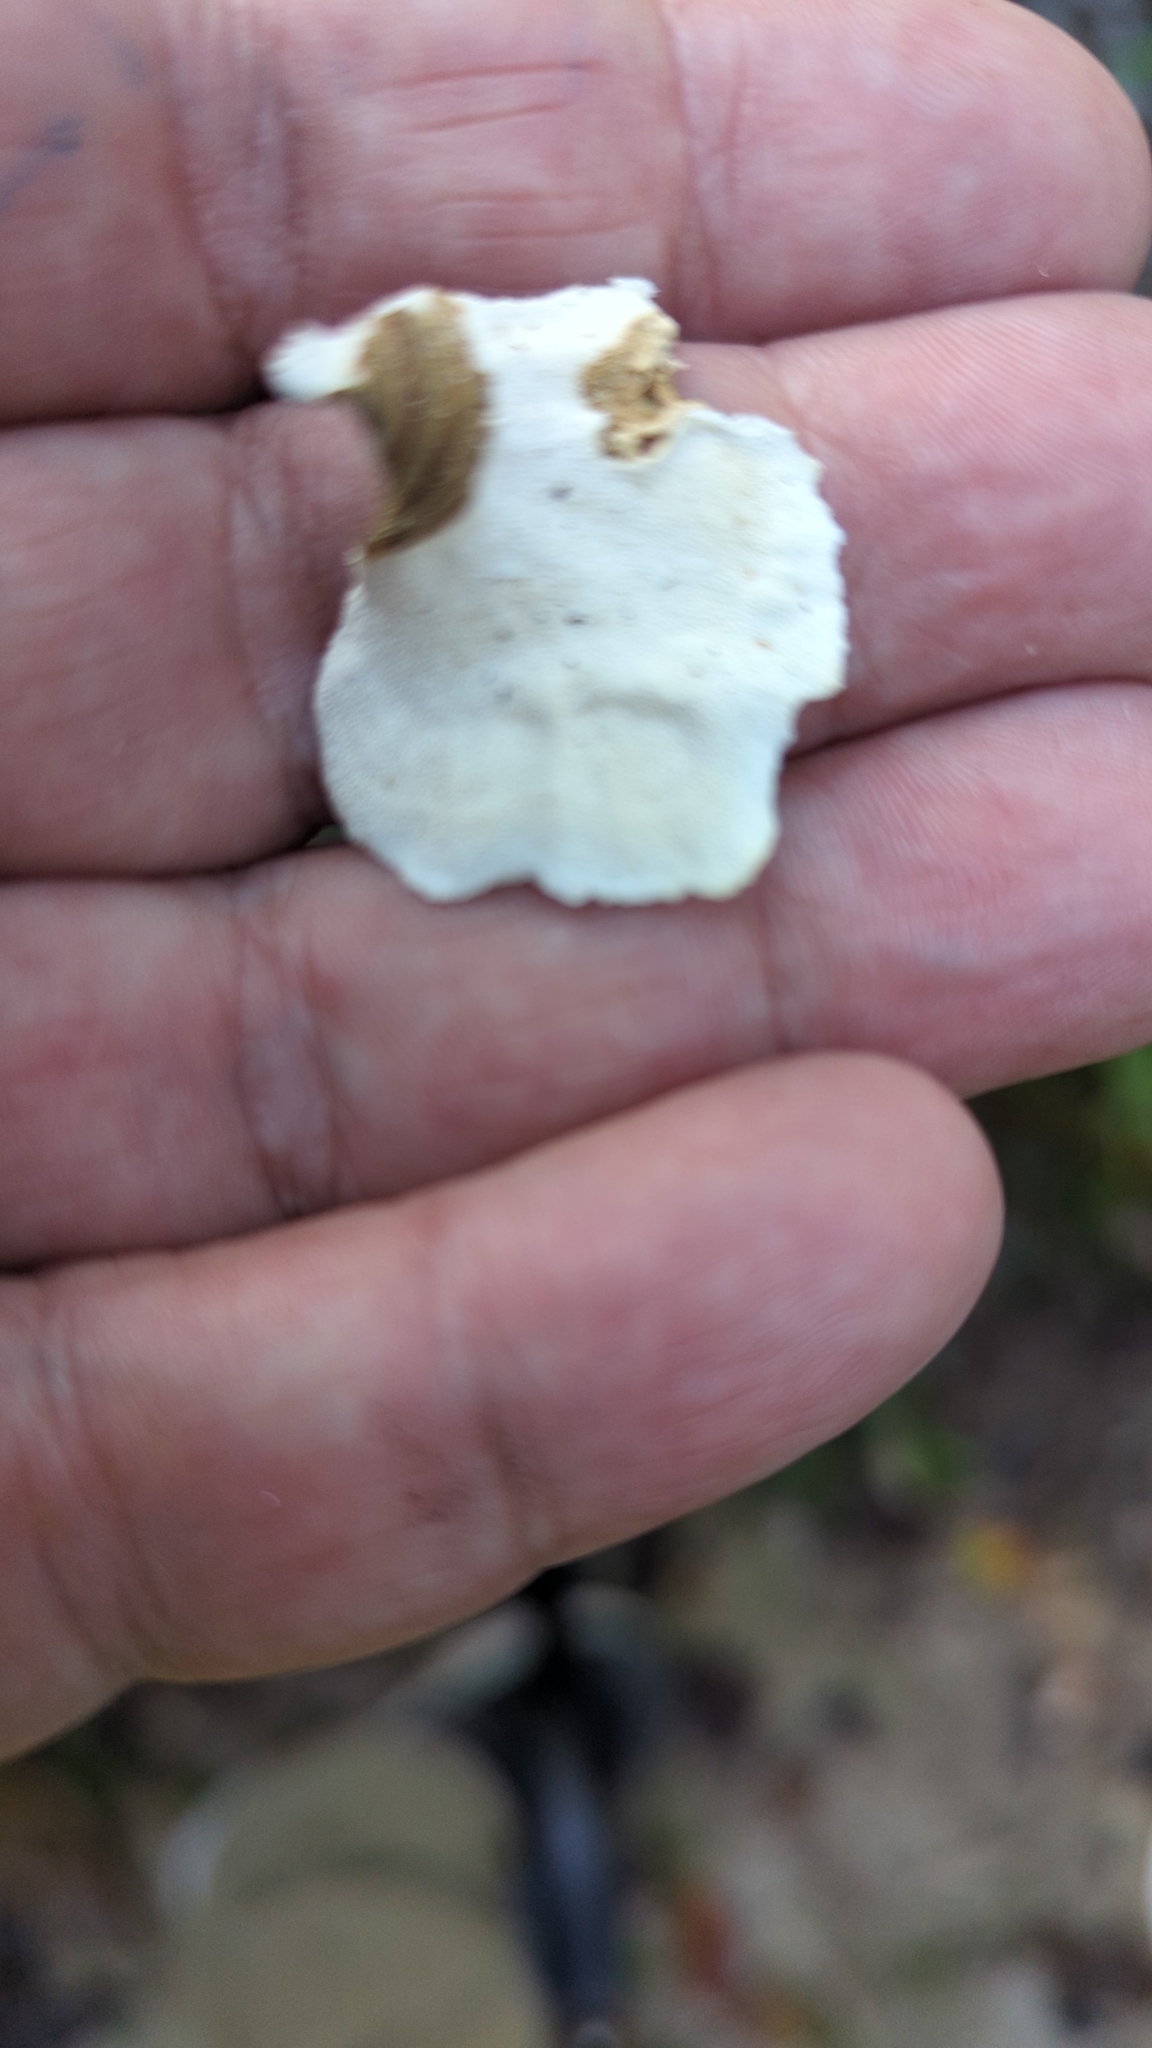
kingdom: Fungi
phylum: Basidiomycota
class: Agaricomycetes
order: Polyporales
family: Polyporaceae
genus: Trametes
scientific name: Trametes versicolor
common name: Turkeytail
